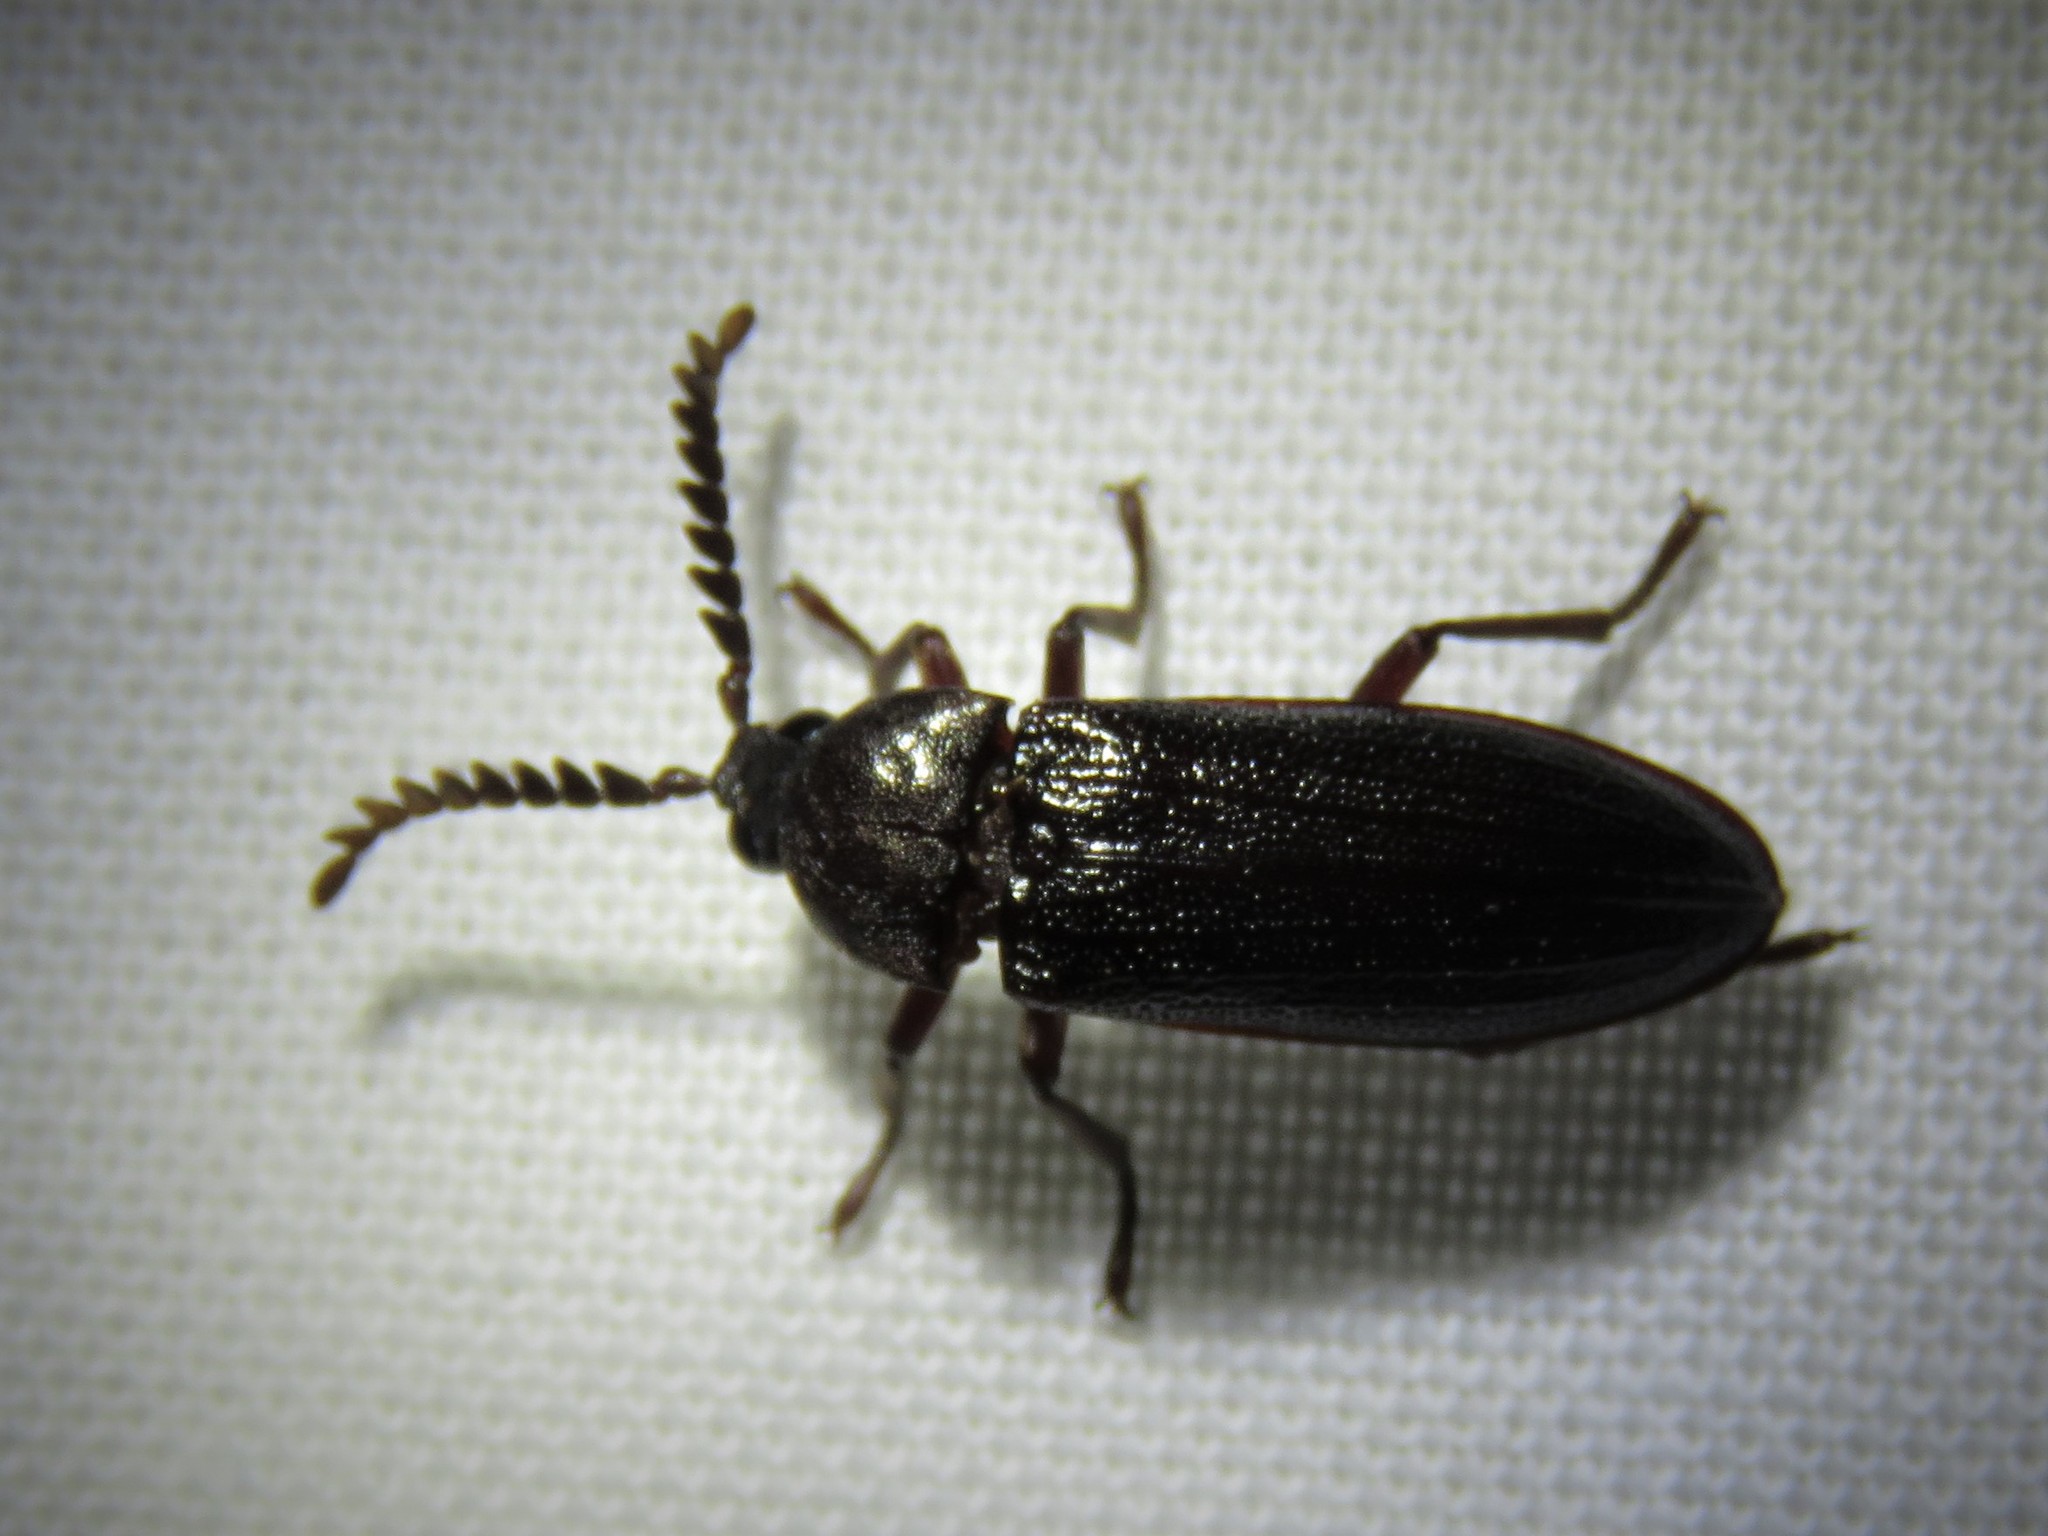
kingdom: Animalia
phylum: Arthropoda
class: Insecta
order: Coleoptera
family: Callirhipidae
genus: Zenoa
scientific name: Zenoa picea
